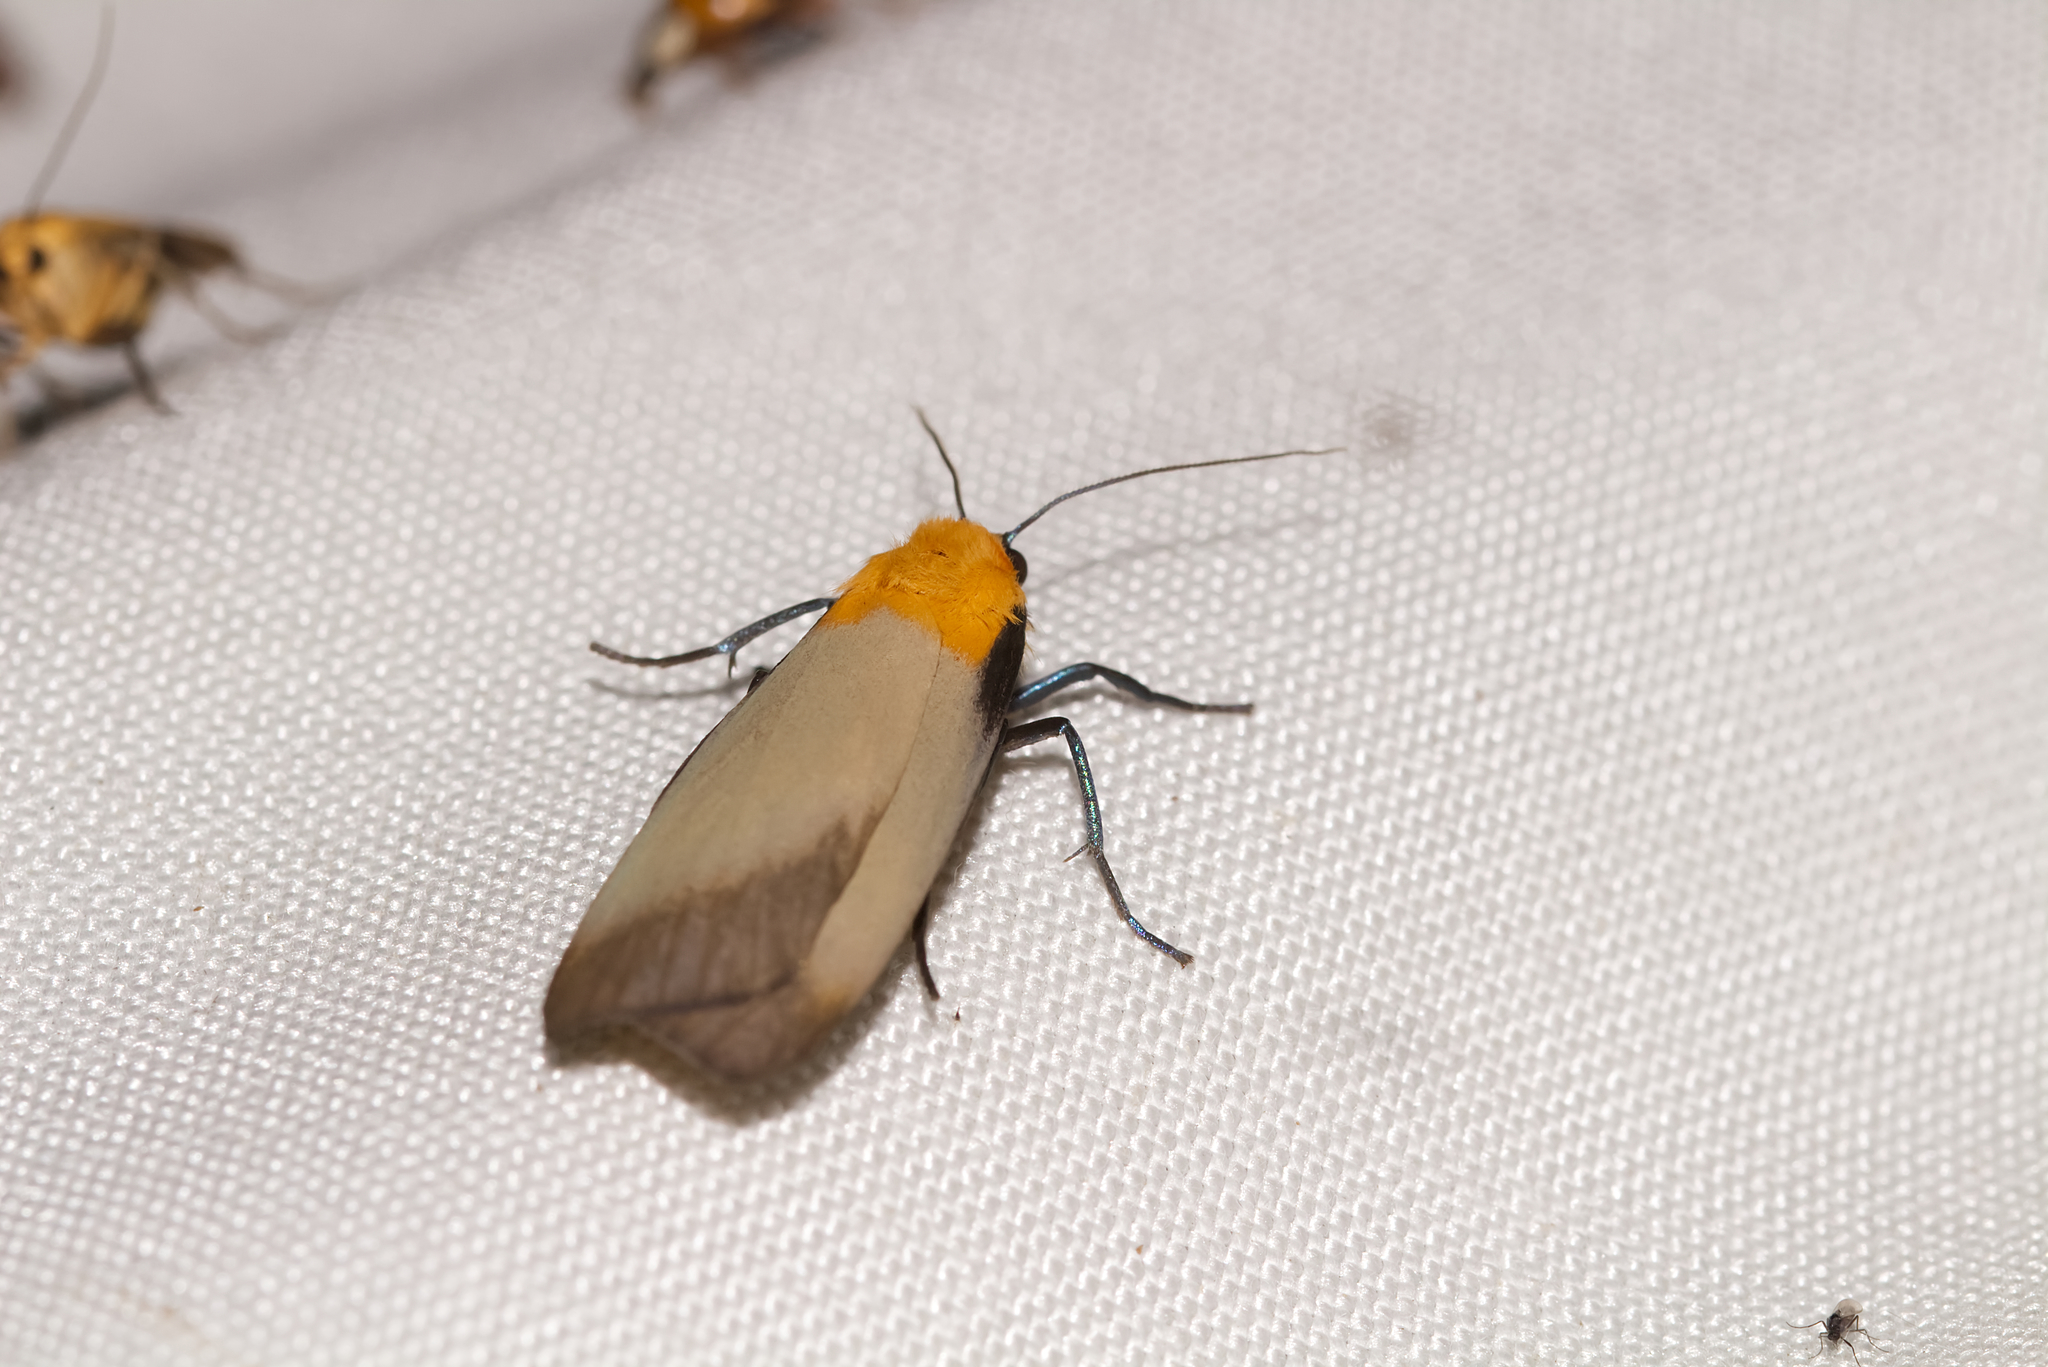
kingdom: Animalia
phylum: Arthropoda
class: Insecta
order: Lepidoptera
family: Erebidae
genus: Lithosia
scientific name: Lithosia quadra
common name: Four-spotted footman
